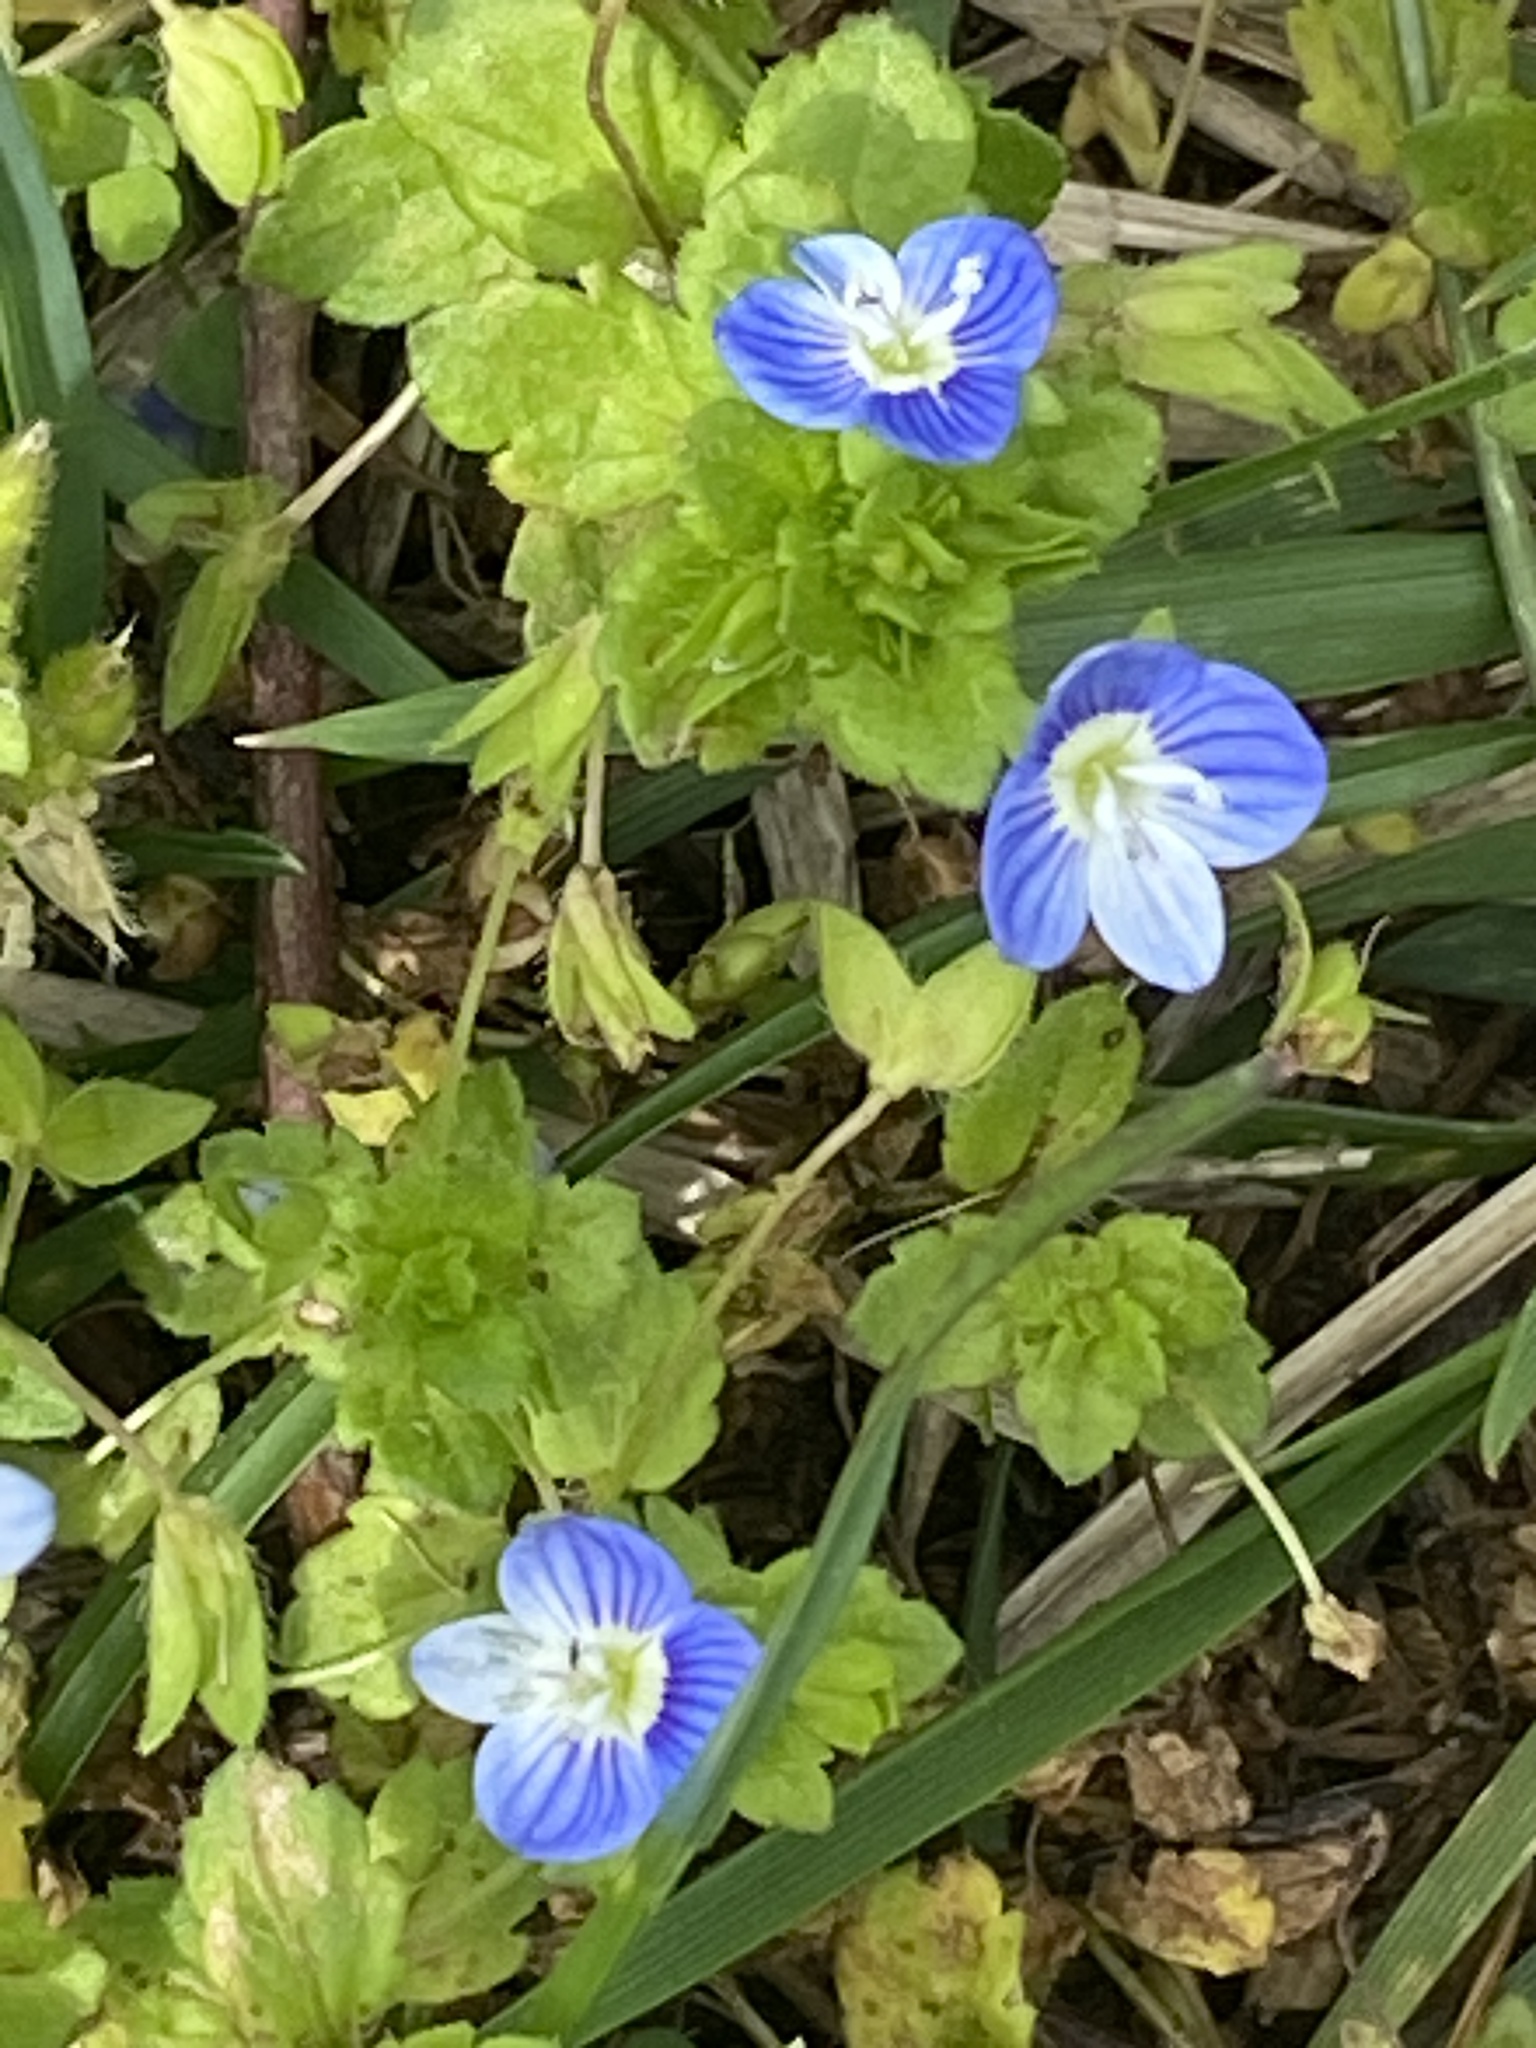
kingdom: Plantae
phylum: Tracheophyta
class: Magnoliopsida
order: Lamiales
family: Plantaginaceae
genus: Veronica
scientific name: Veronica persica
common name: Common field-speedwell
